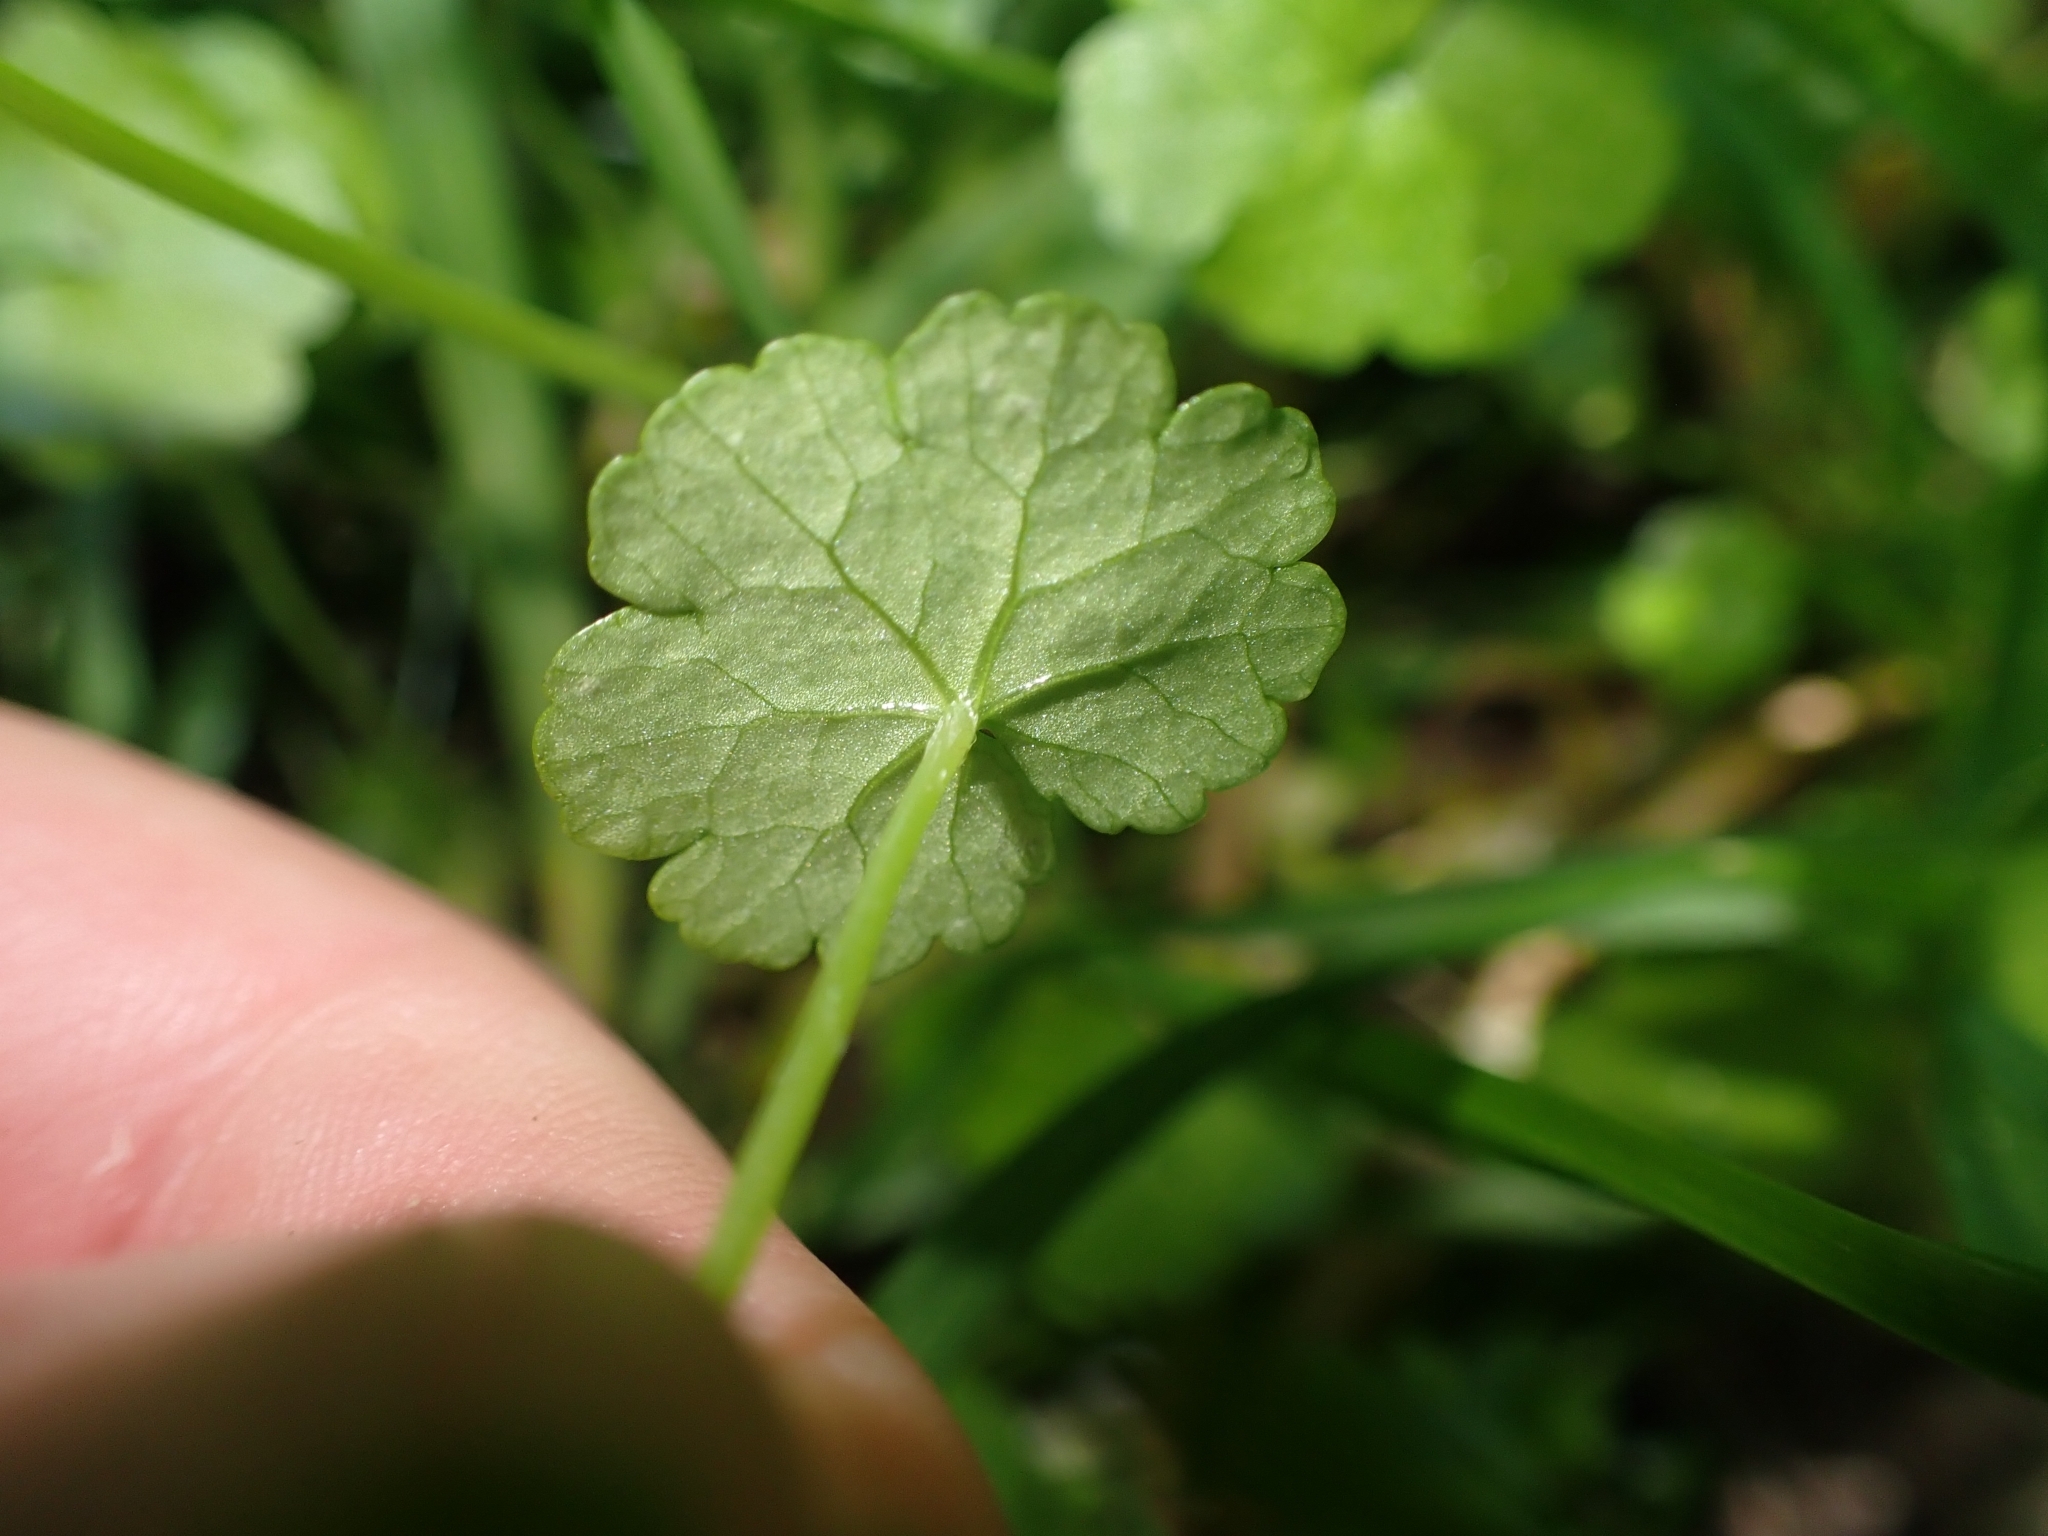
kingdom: Plantae
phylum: Tracheophyta
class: Magnoliopsida
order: Apiales
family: Araliaceae
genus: Hydrocotyle
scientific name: Hydrocotyle heteromeria
